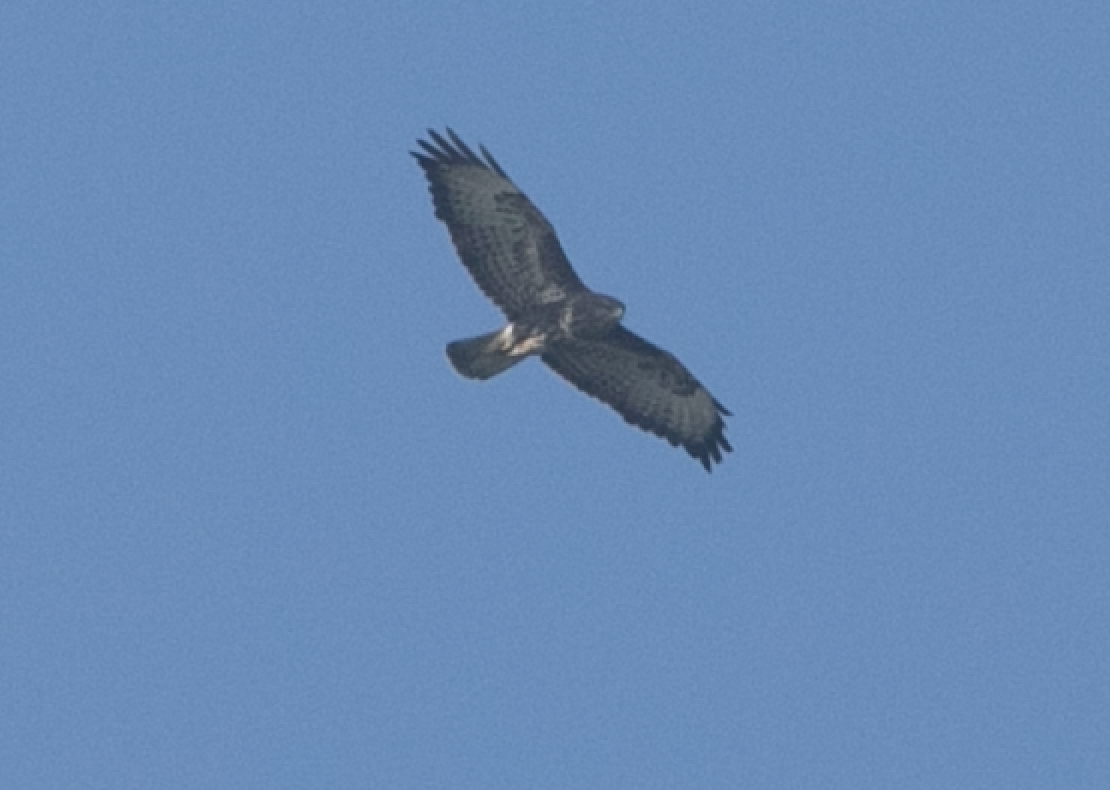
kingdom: Animalia
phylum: Chordata
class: Aves
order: Accipitriformes
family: Accipitridae
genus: Buteo
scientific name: Buteo buteo
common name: Common buzzard
